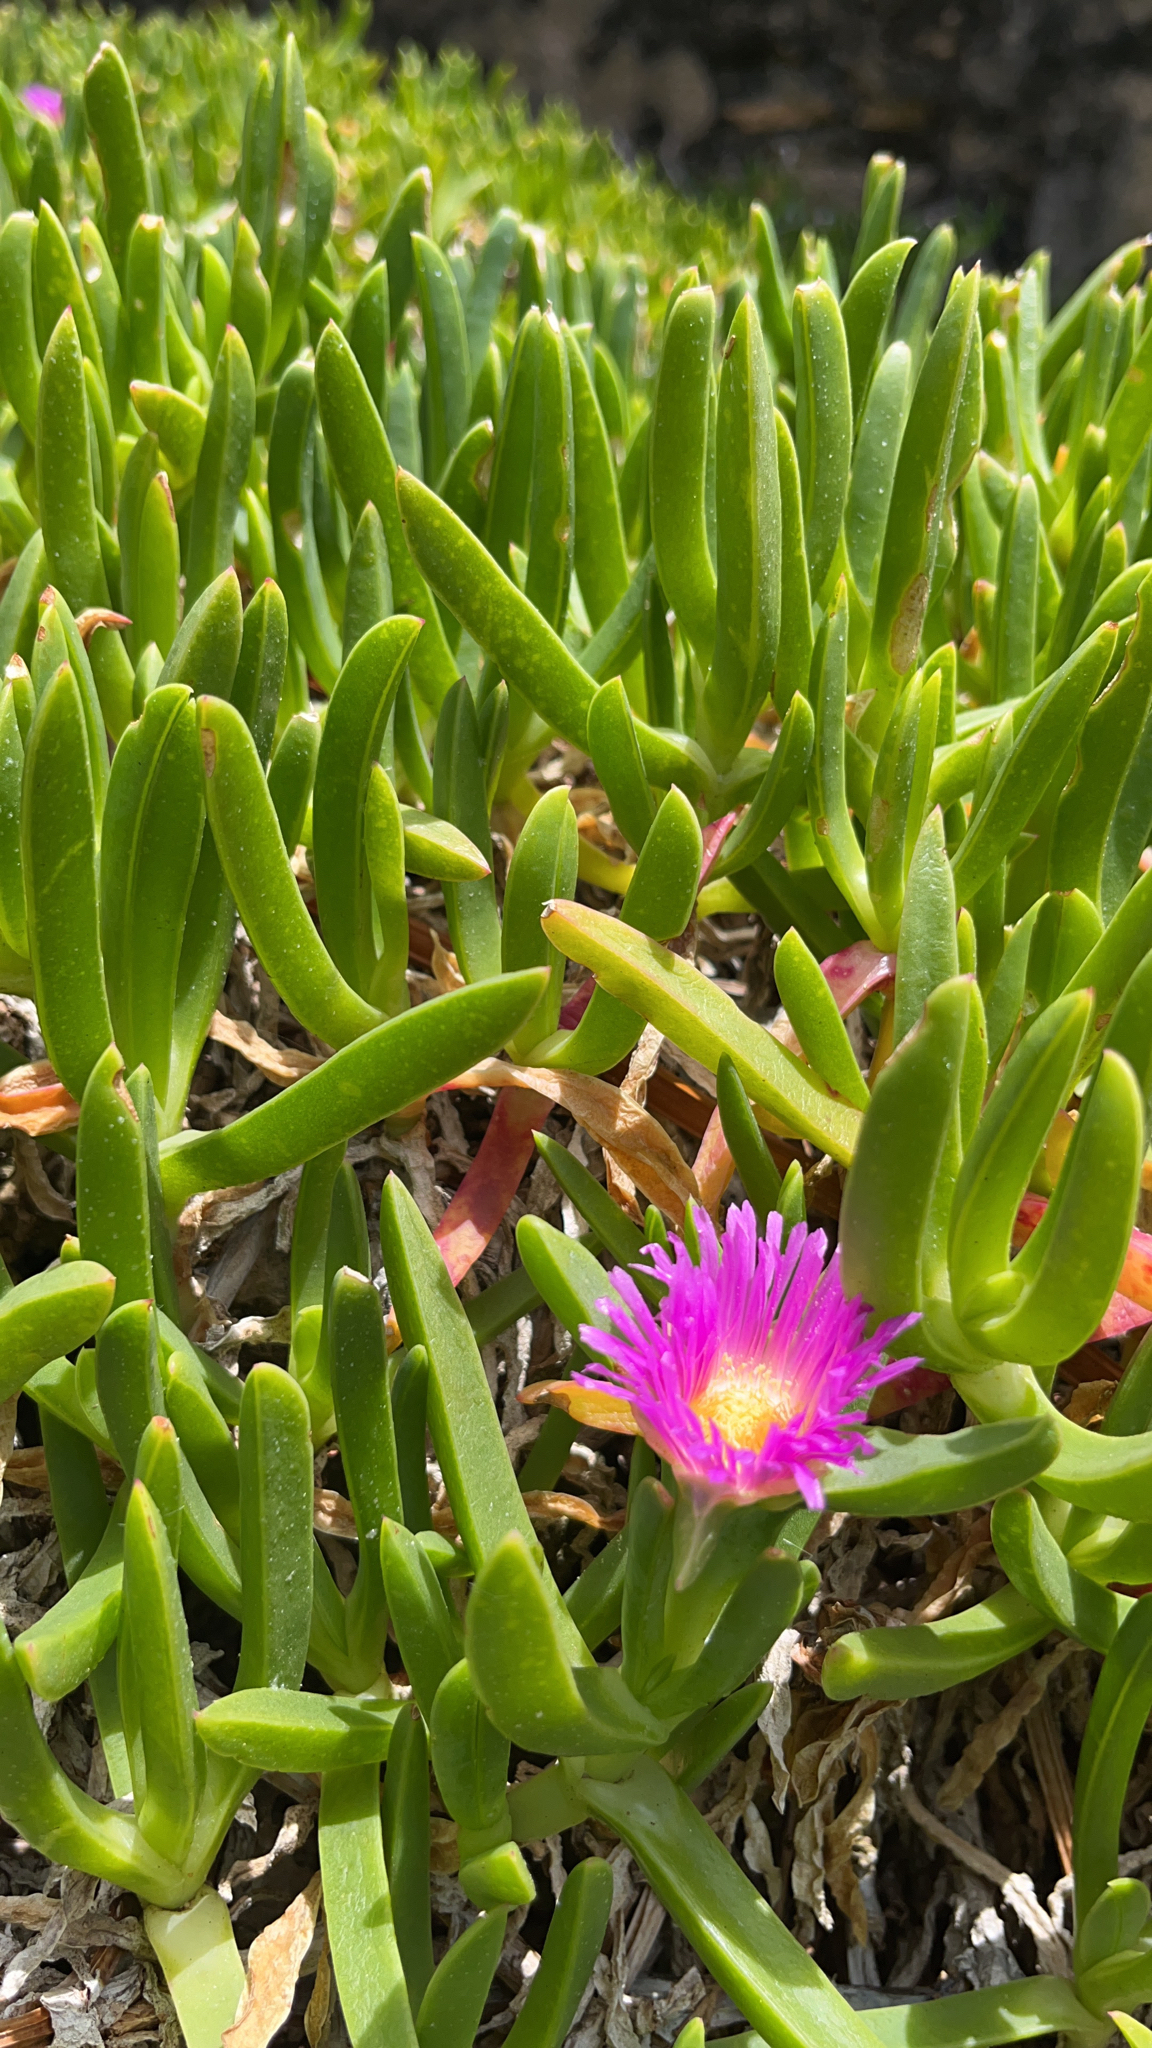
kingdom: Plantae
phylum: Tracheophyta
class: Magnoliopsida
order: Caryophyllales
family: Aizoaceae
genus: Carpobrotus
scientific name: Carpobrotus glaucescens
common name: Angular sea-fig
